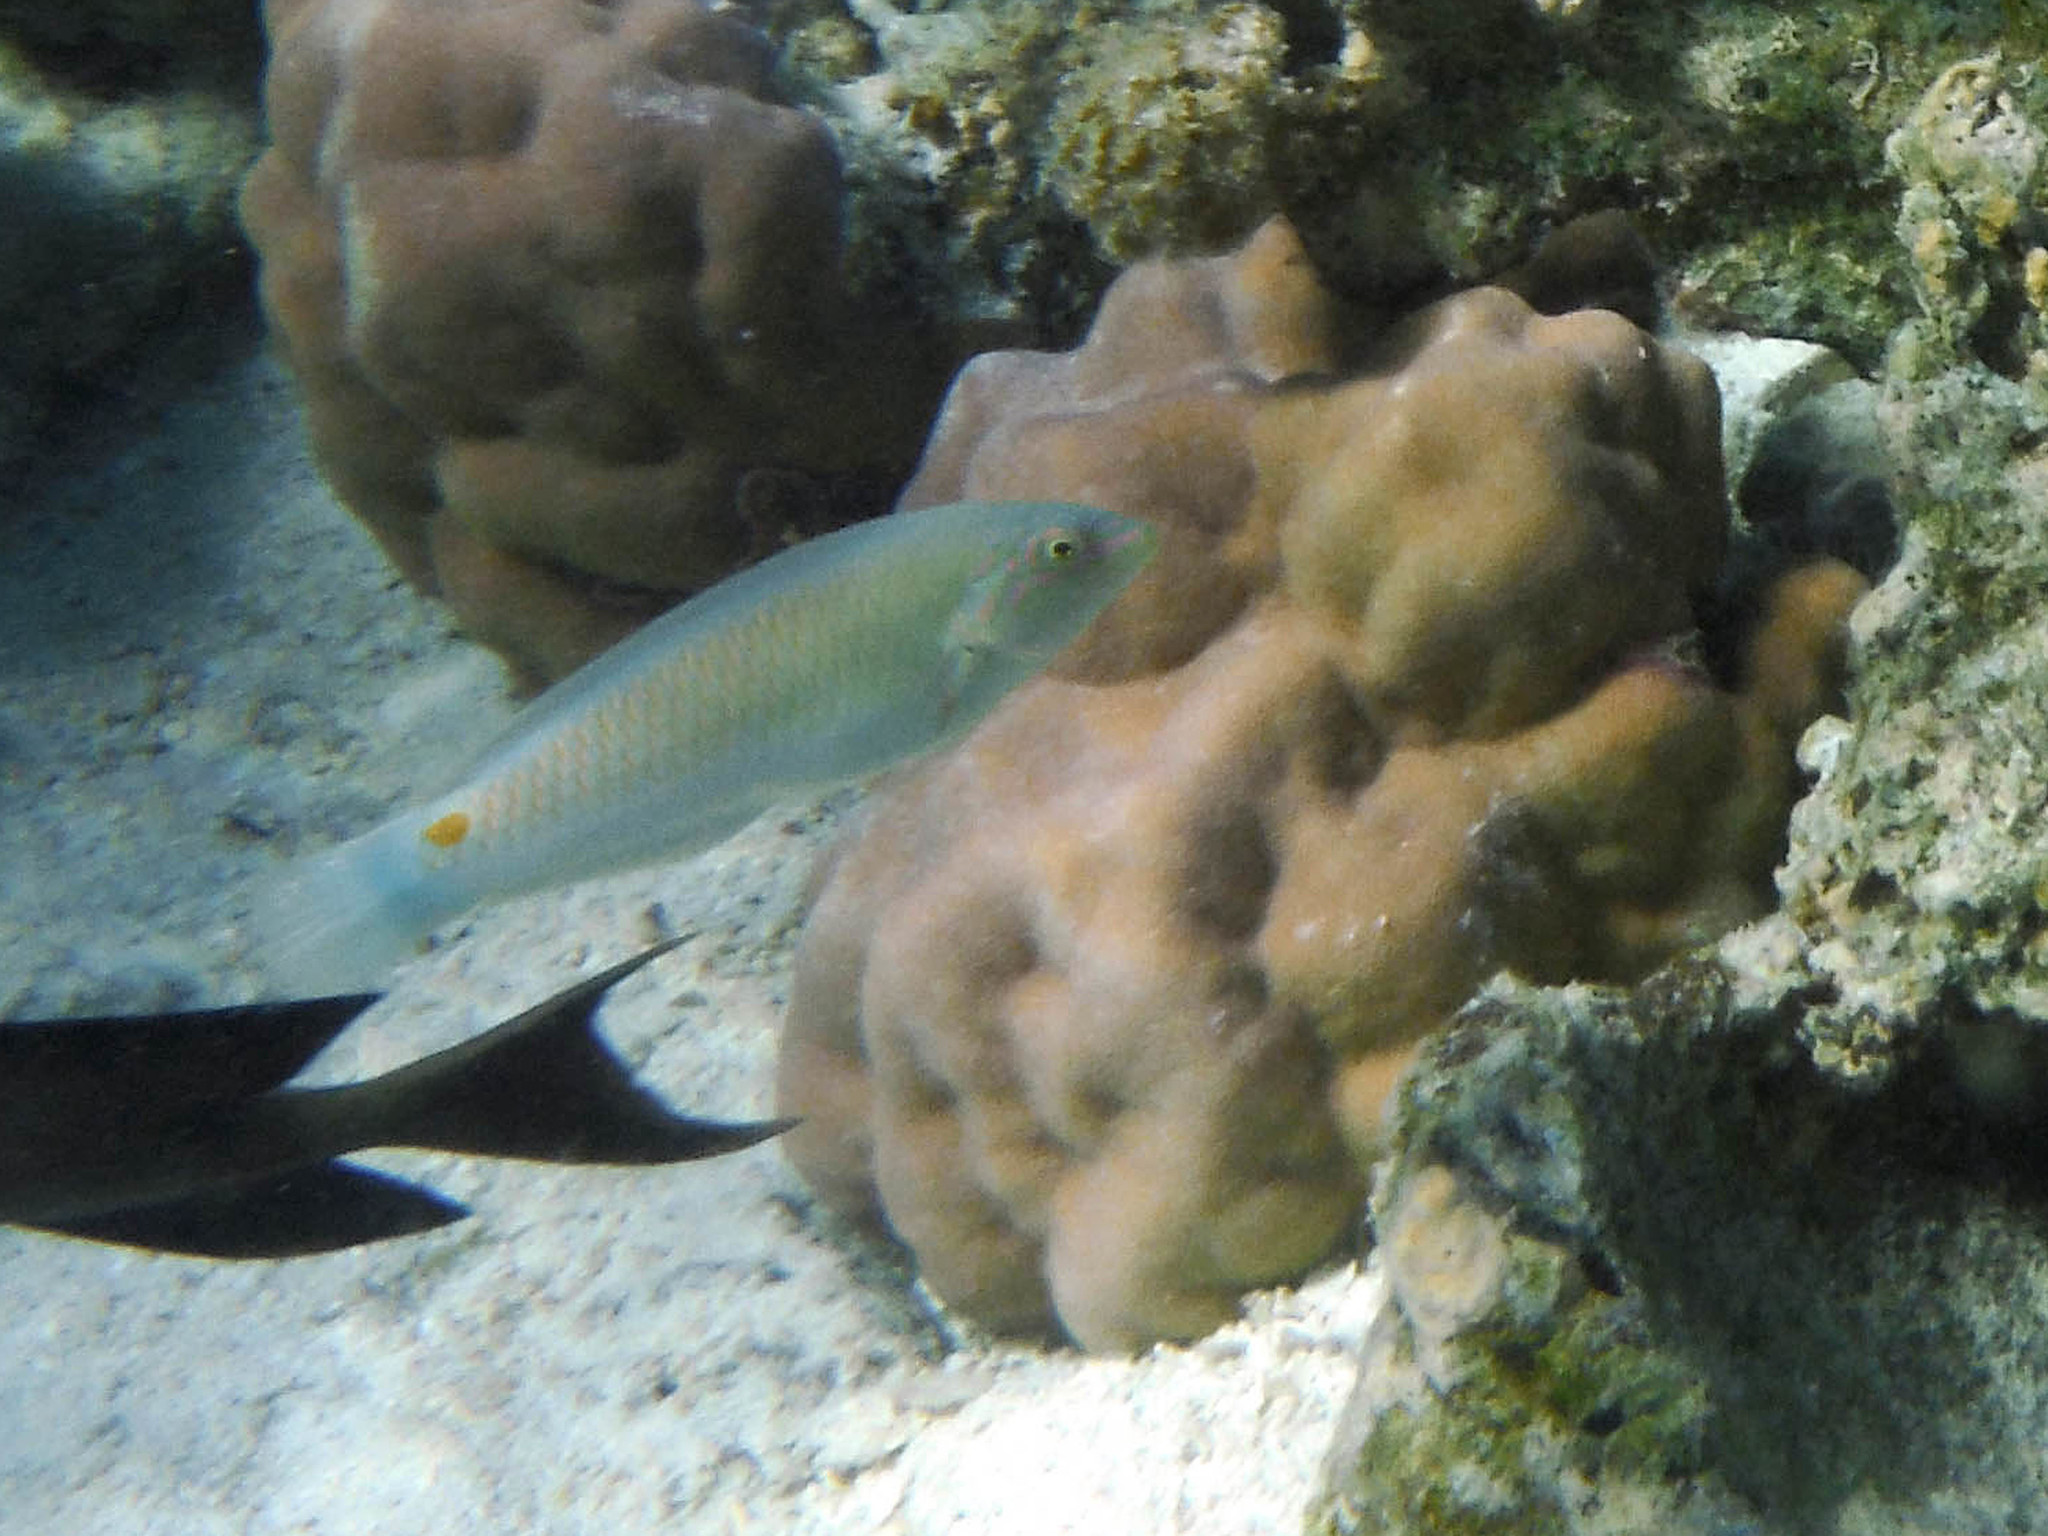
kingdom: Animalia
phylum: Chordata
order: Perciformes
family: Labridae
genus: Halichoeres
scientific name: Halichoeres trimaculatus
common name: Three-spot wrasse
